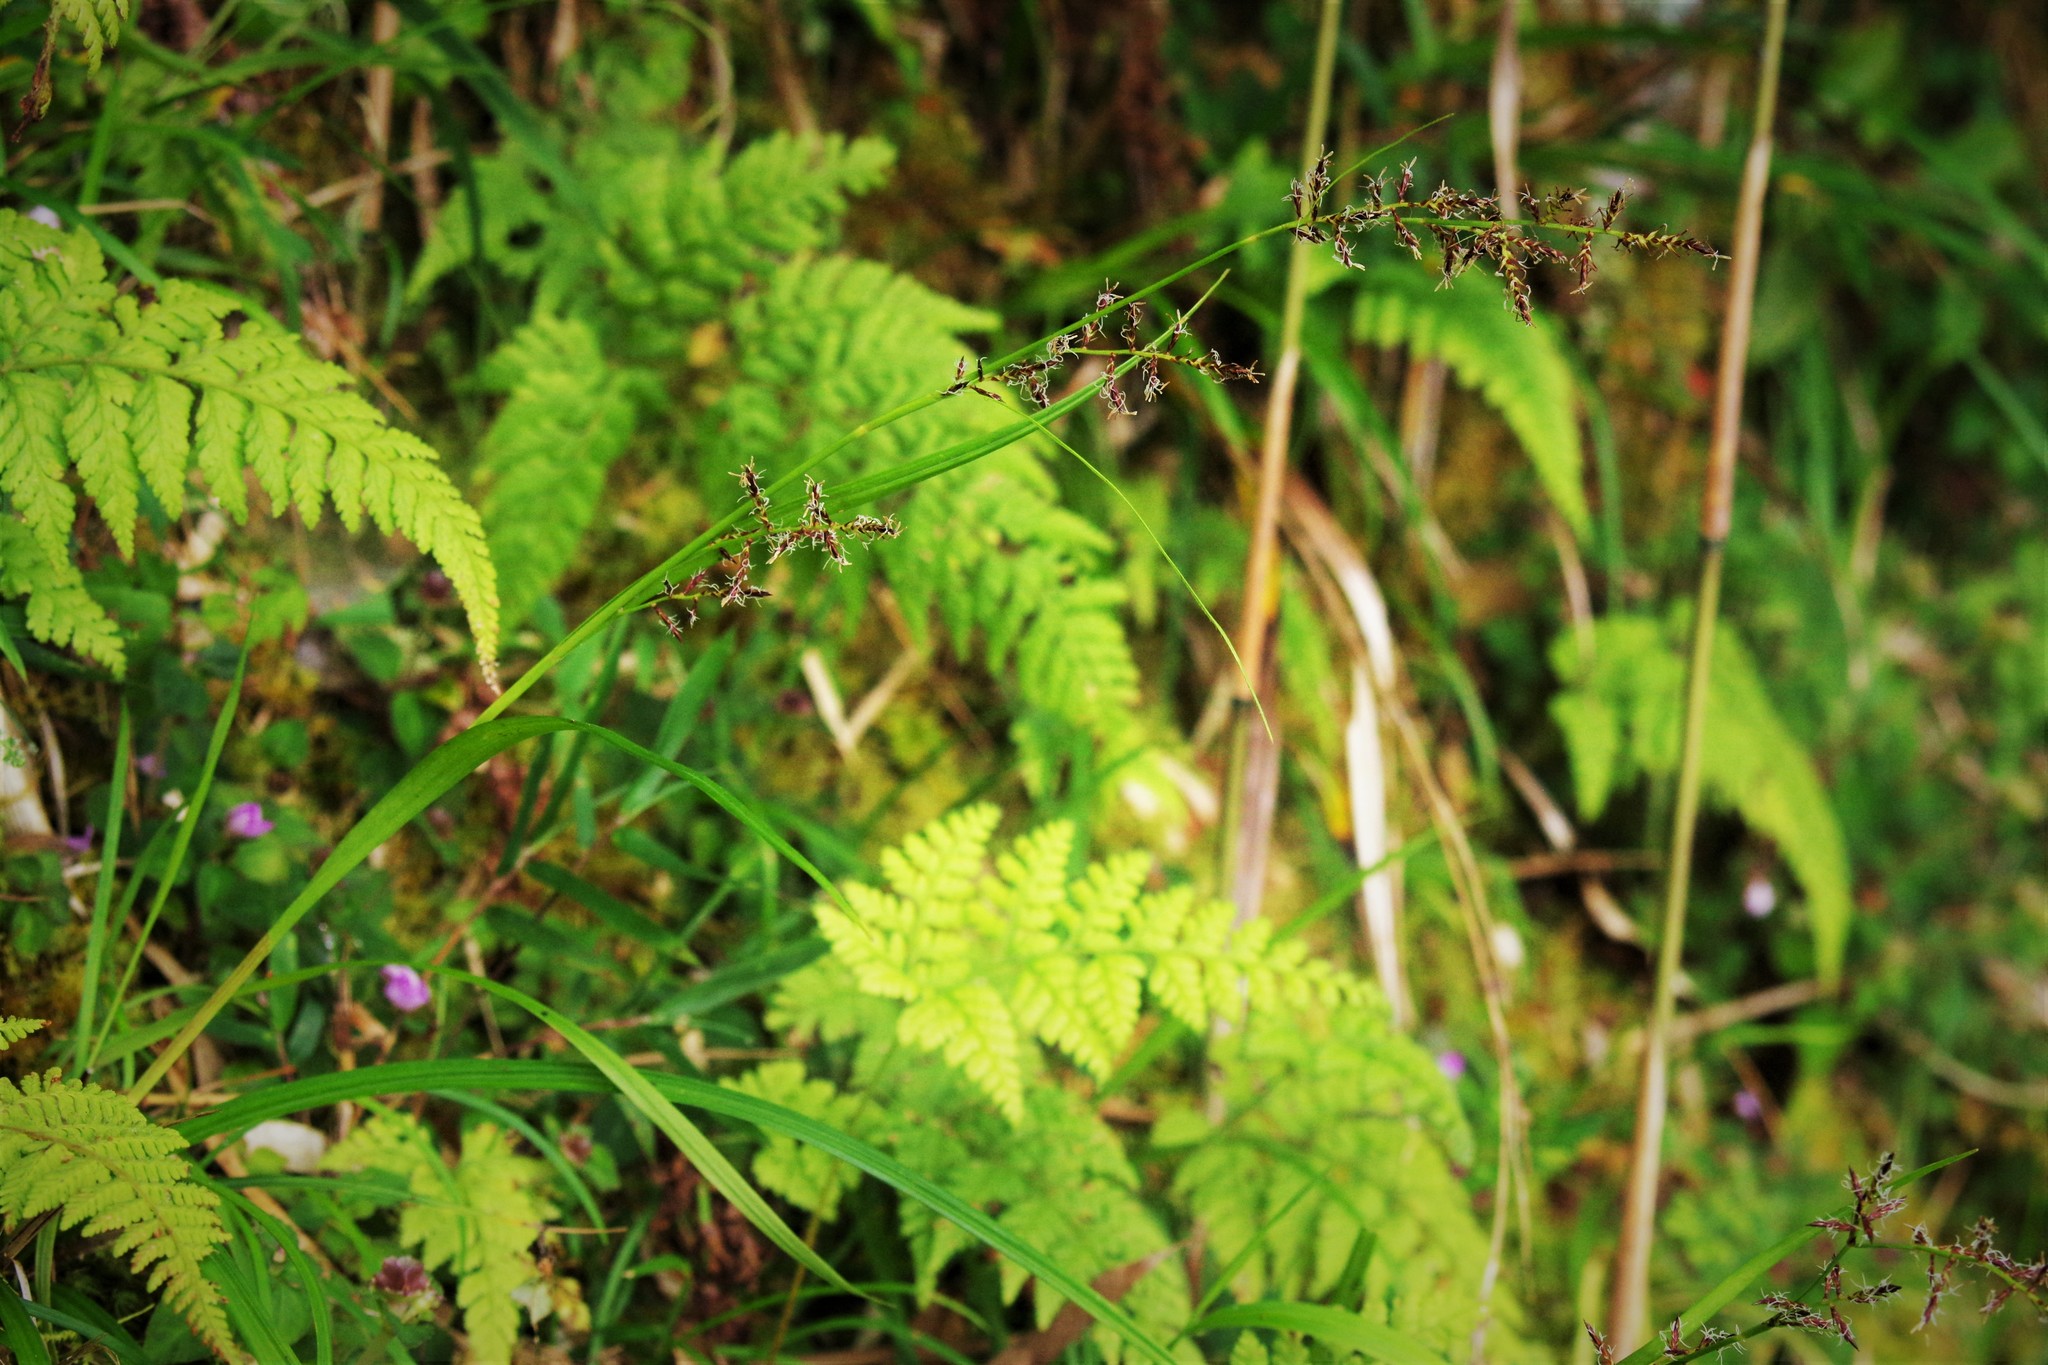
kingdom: Plantae
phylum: Tracheophyta
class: Liliopsida
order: Poales
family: Cyperaceae
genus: Carex
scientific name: Carex filicina
